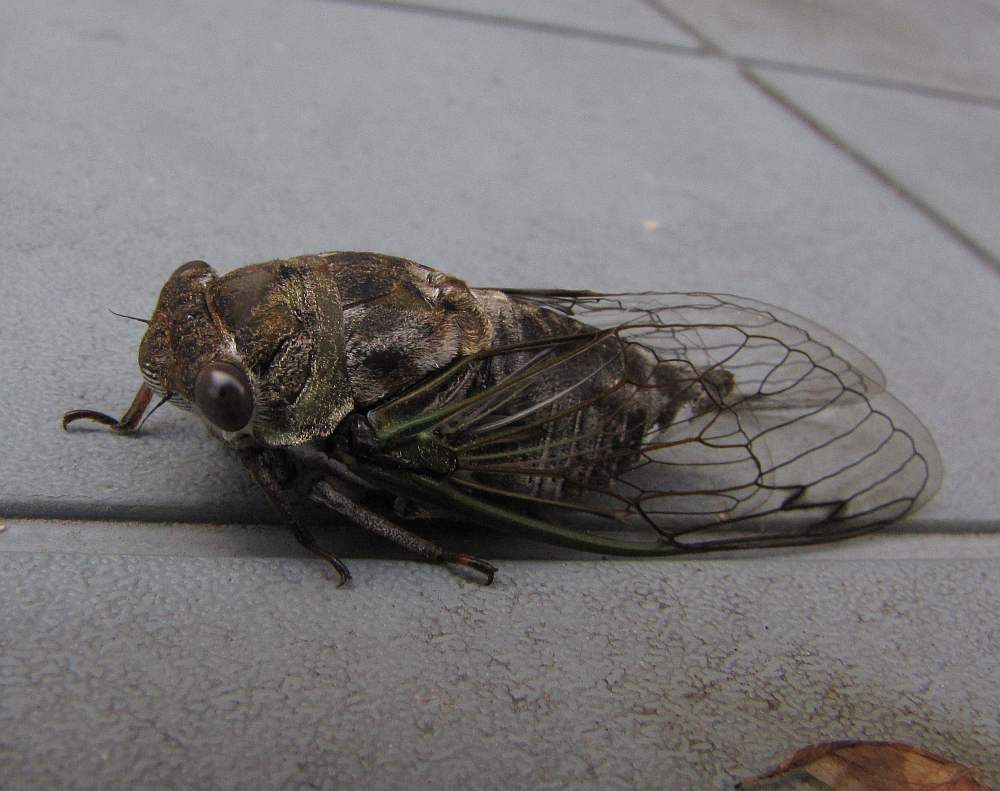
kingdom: Animalia
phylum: Arthropoda
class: Insecta
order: Hemiptera
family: Cicadidae
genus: Neotibicen
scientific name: Neotibicen canicularis
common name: God-day cicada
